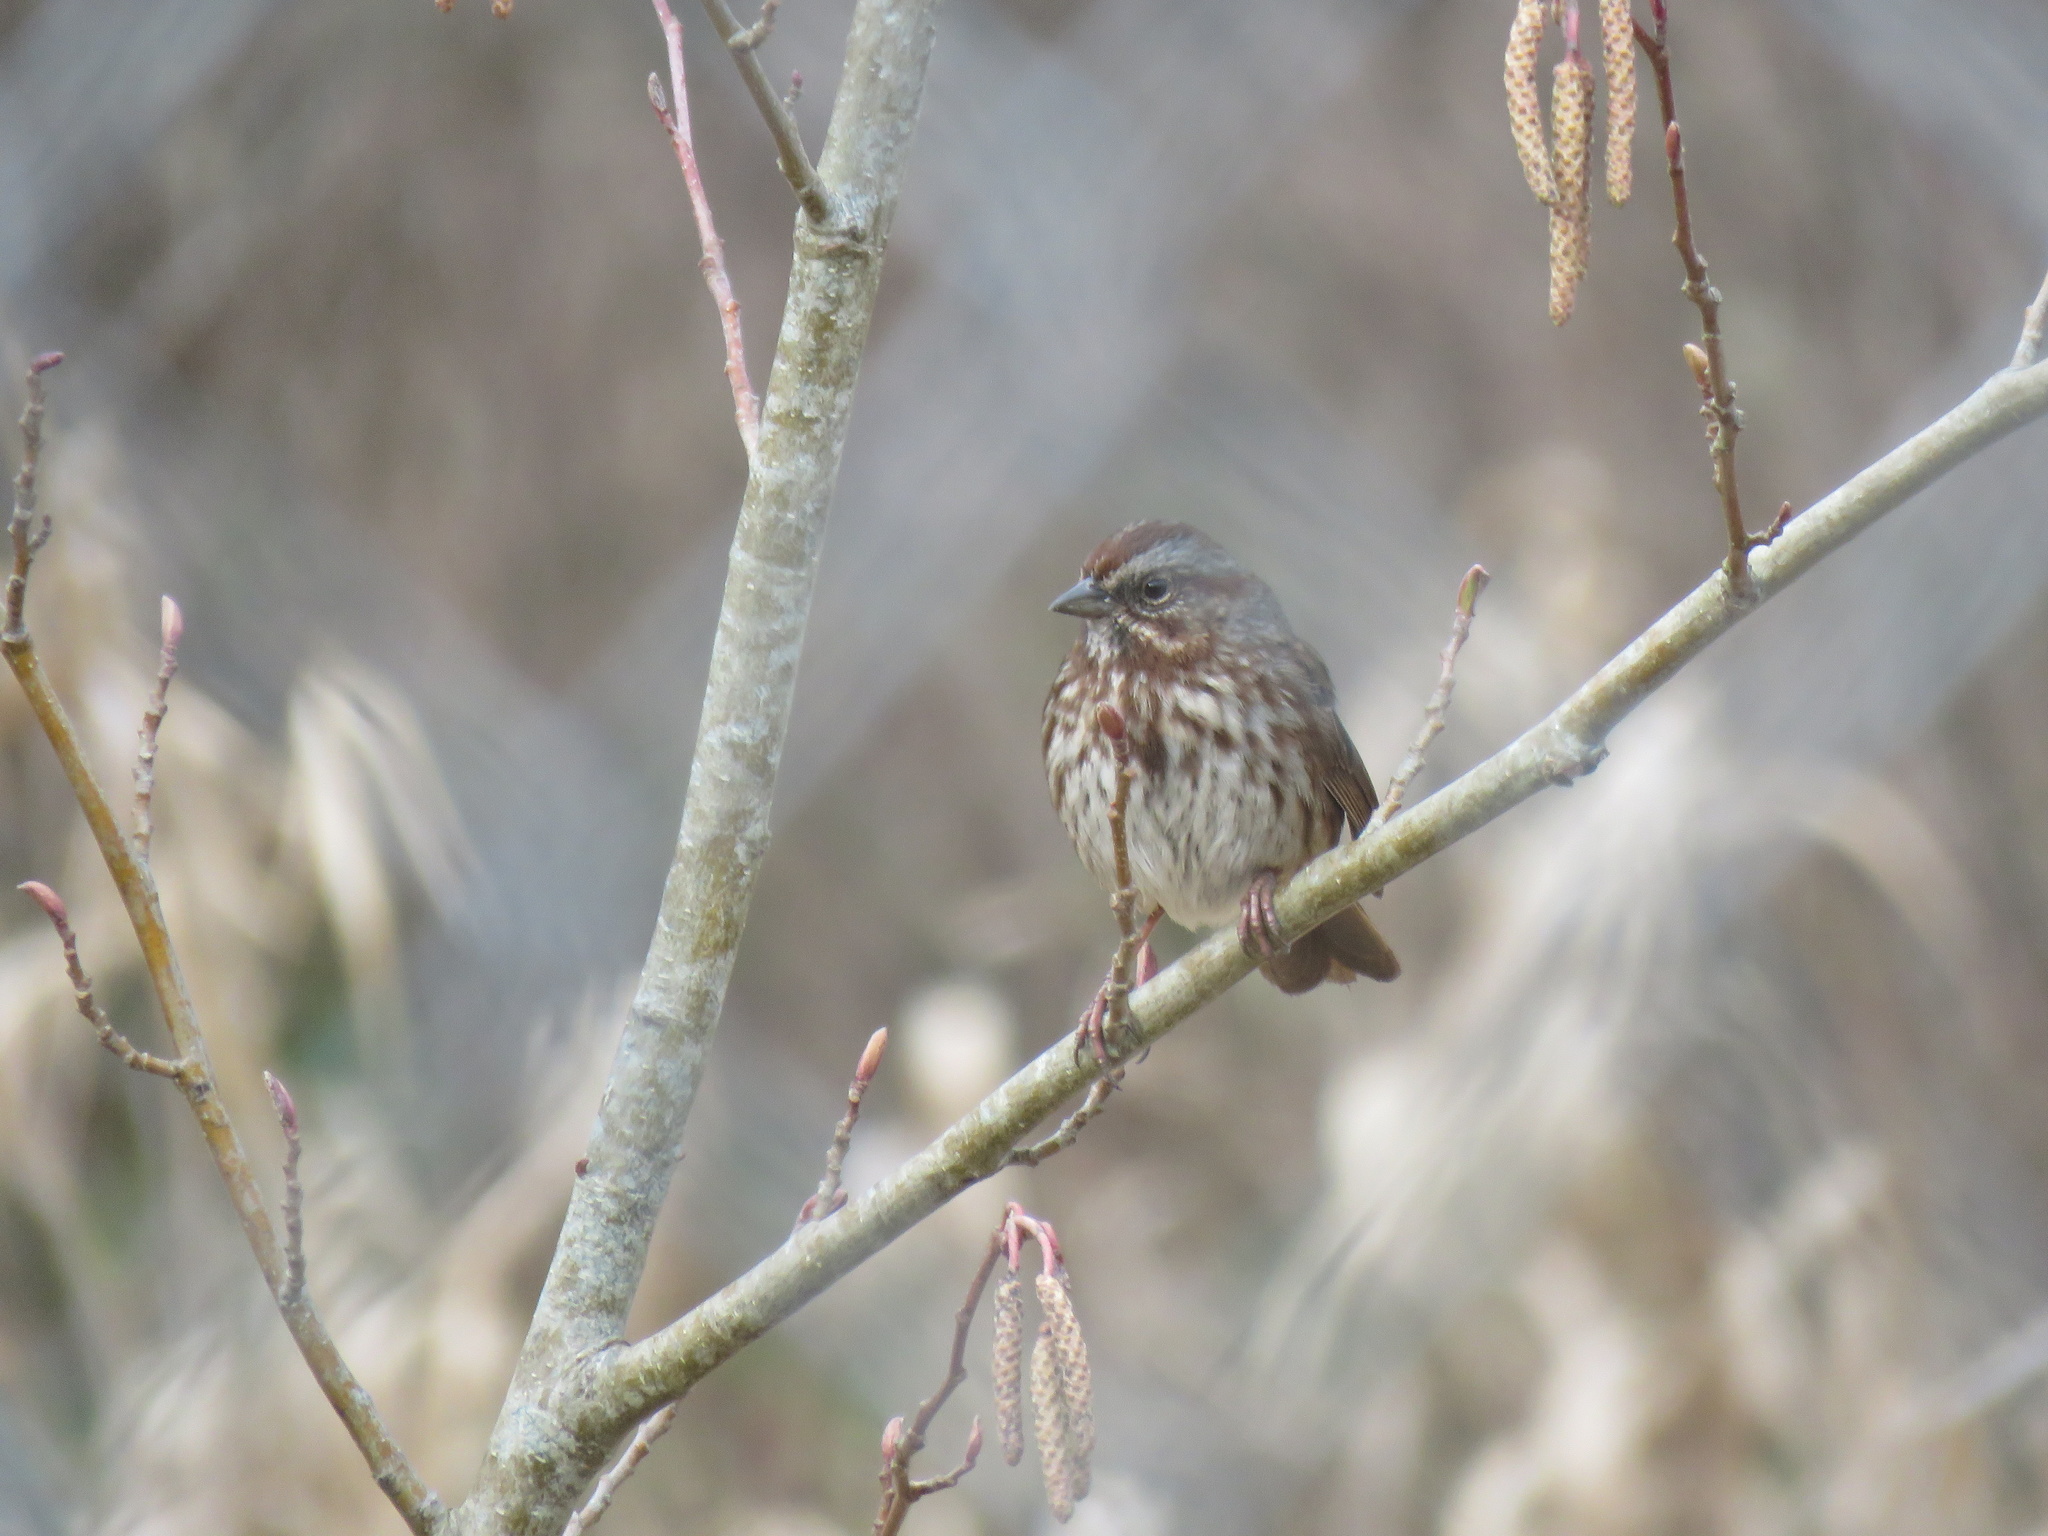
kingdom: Animalia
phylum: Chordata
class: Aves
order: Passeriformes
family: Passerellidae
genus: Melospiza
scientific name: Melospiza melodia
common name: Song sparrow
